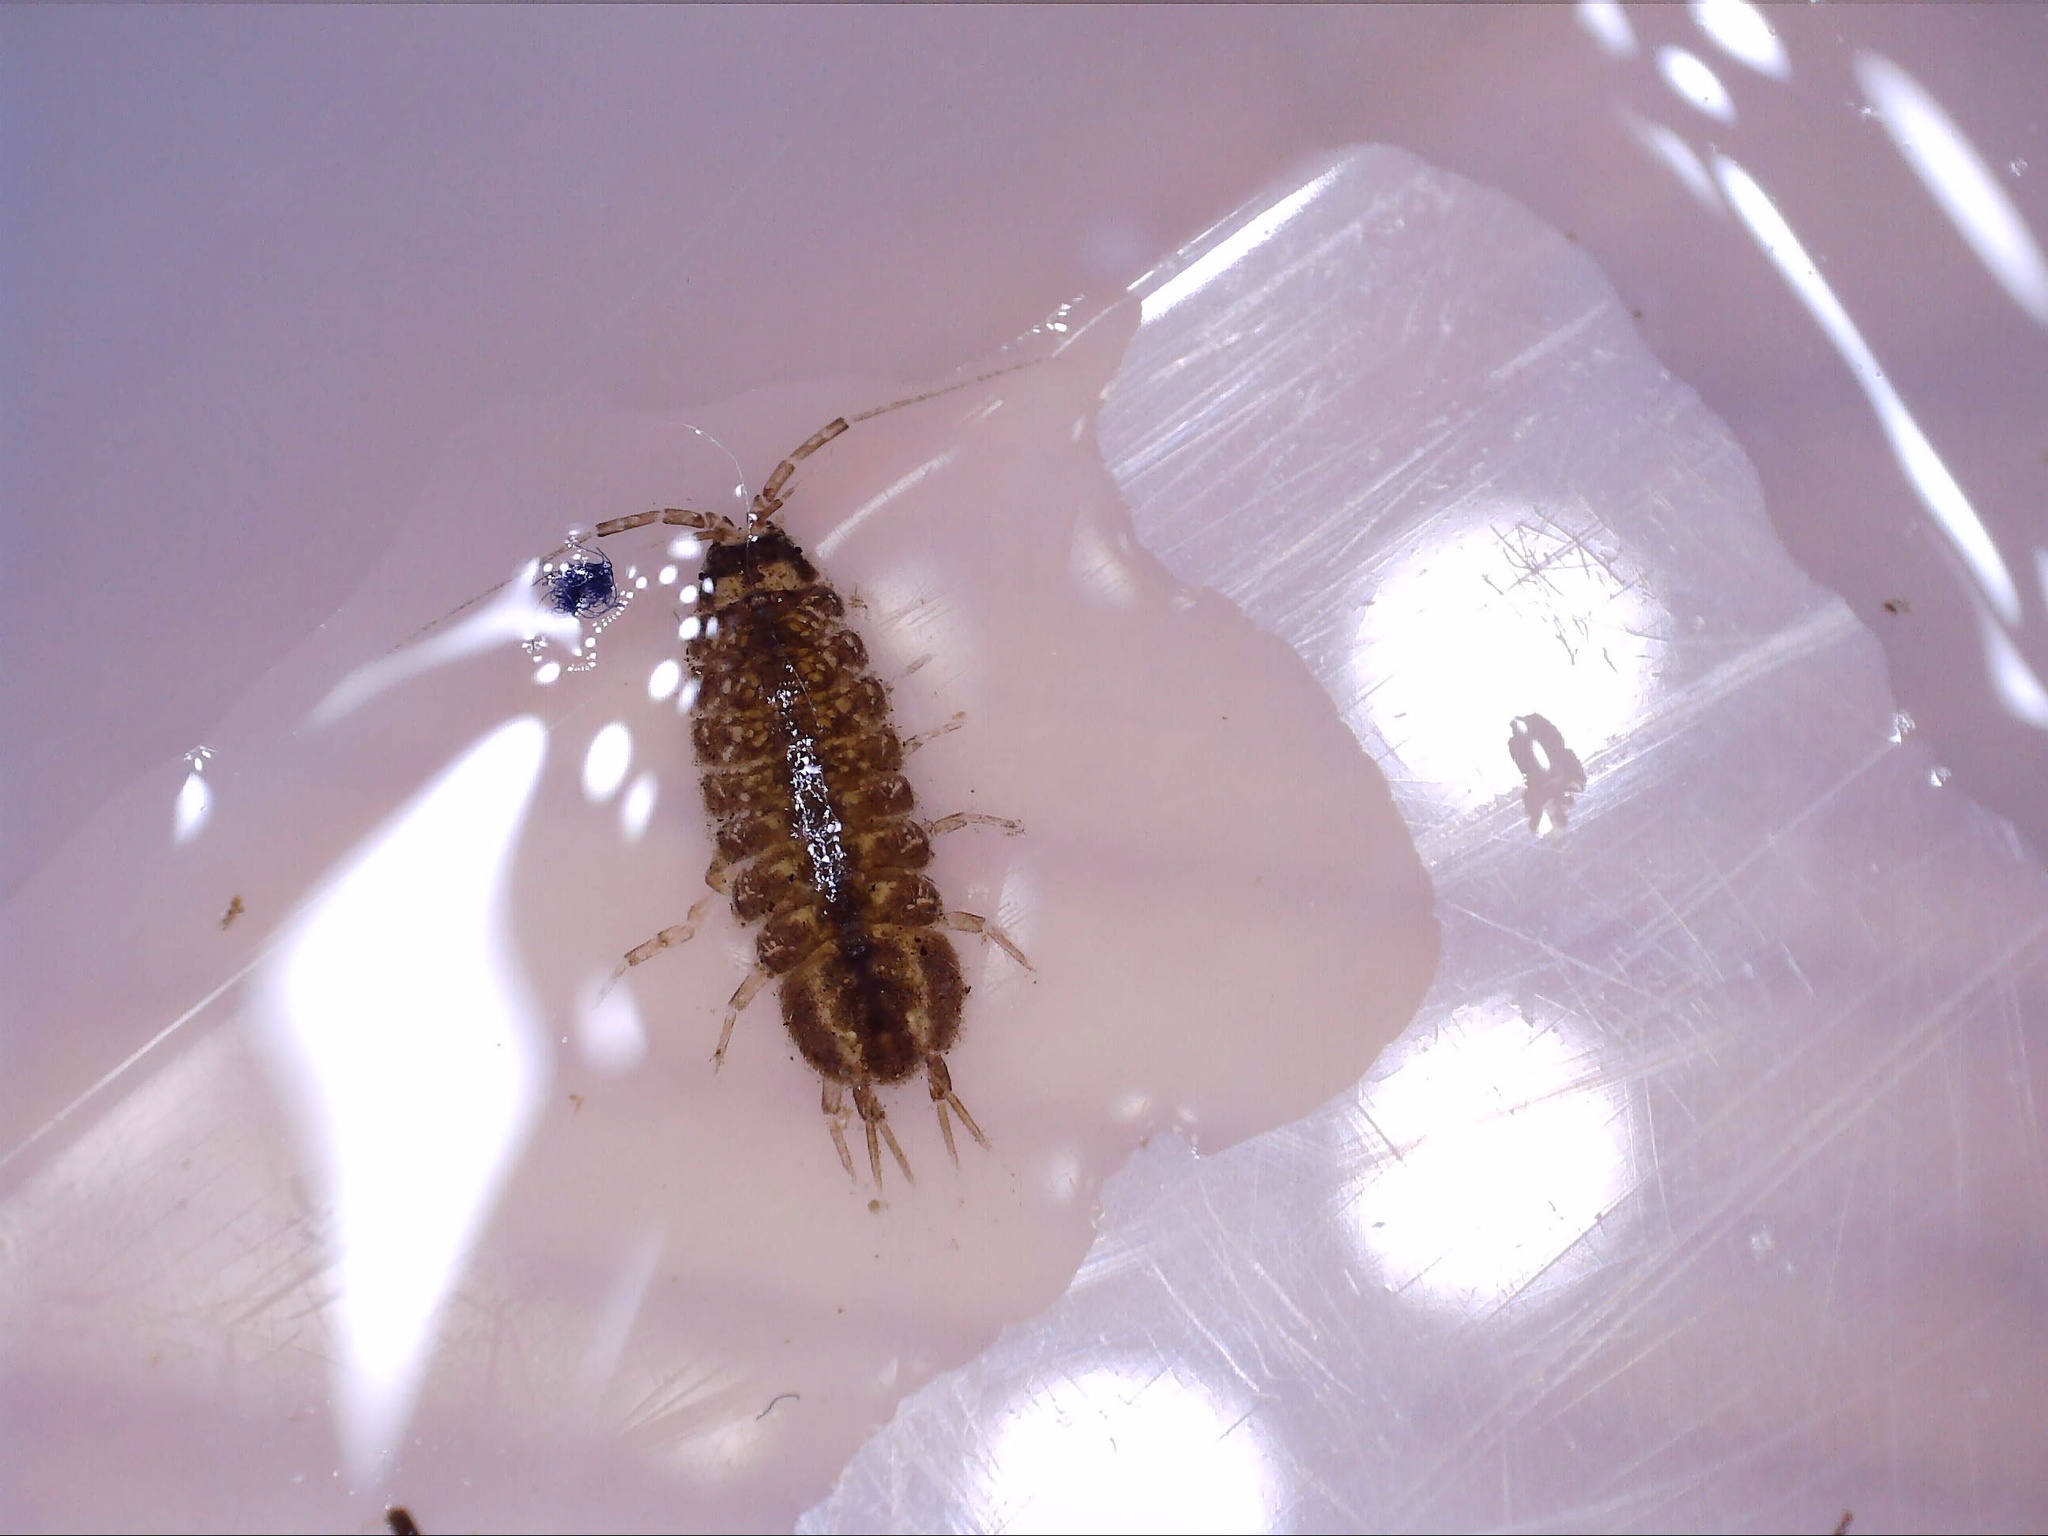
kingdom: Animalia
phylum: Arthropoda
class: Malacostraca
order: Isopoda
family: Asellidae
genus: Asellus
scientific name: Asellus aquaticus
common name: Water hog lice/slaters
